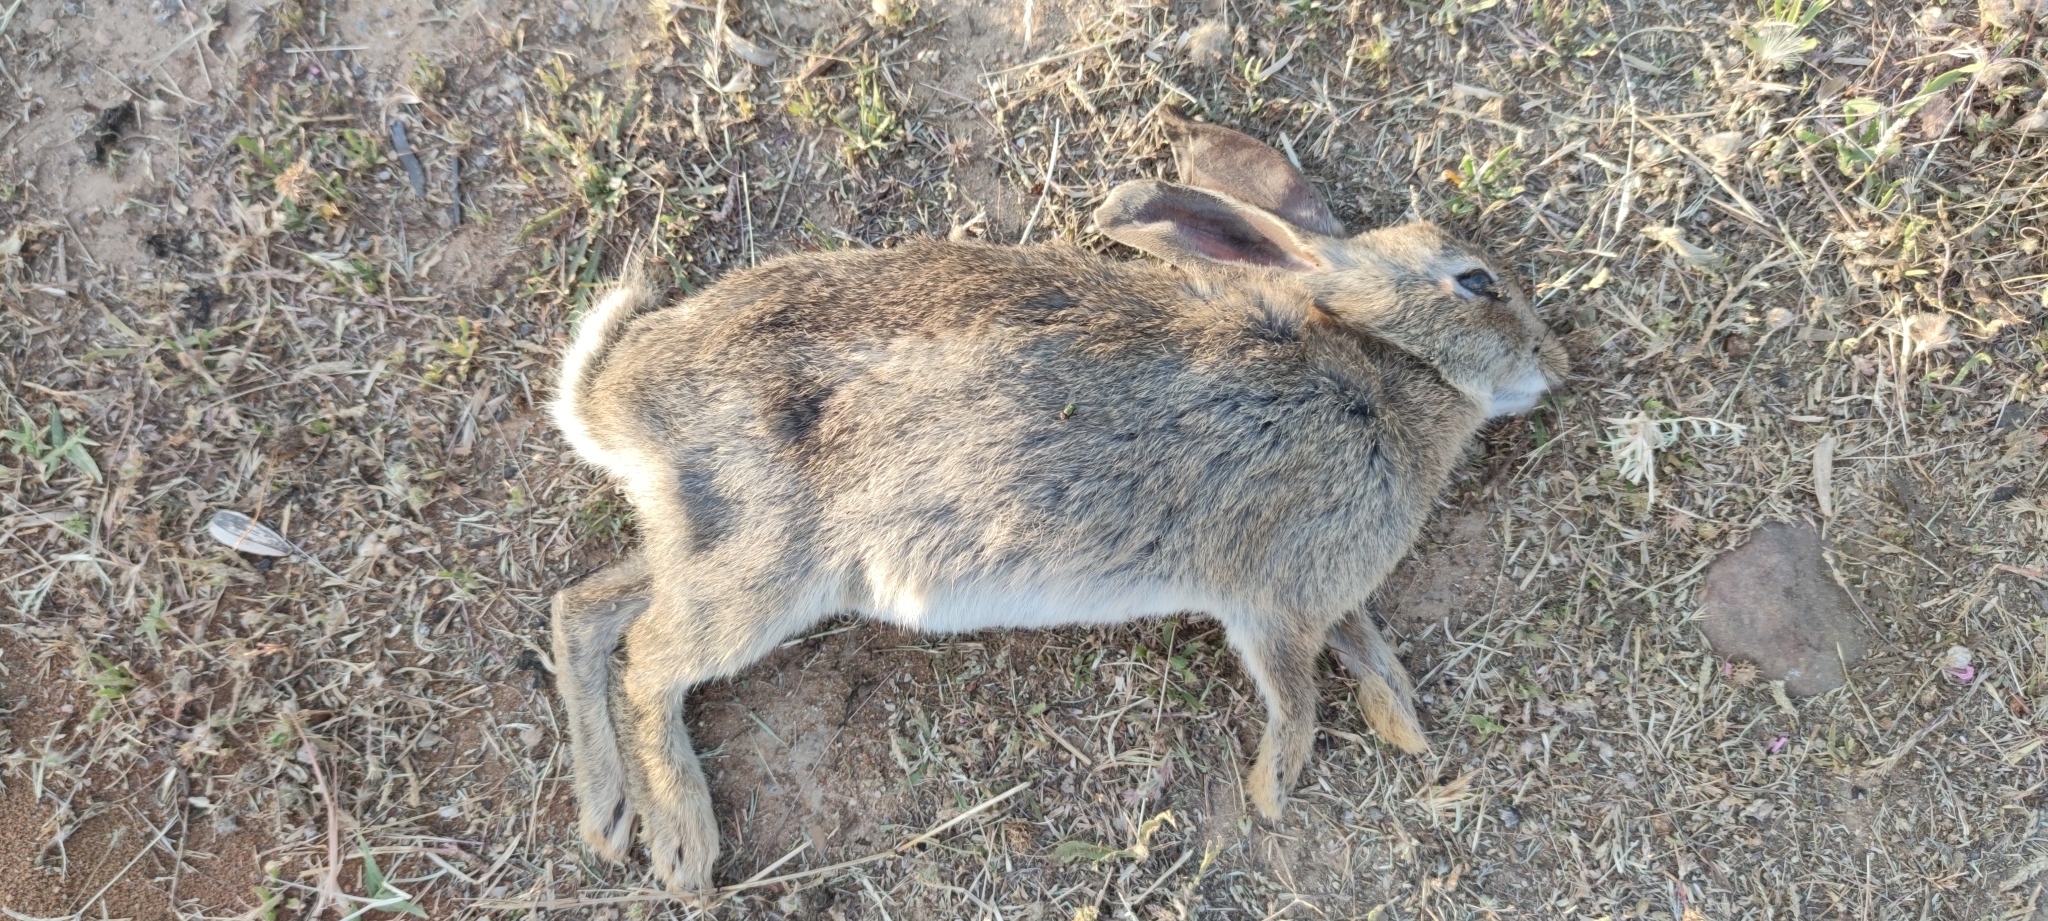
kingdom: Animalia
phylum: Chordata
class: Mammalia
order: Lagomorpha
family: Leporidae
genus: Oryctolagus
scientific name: Oryctolagus cuniculus
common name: European rabbit
